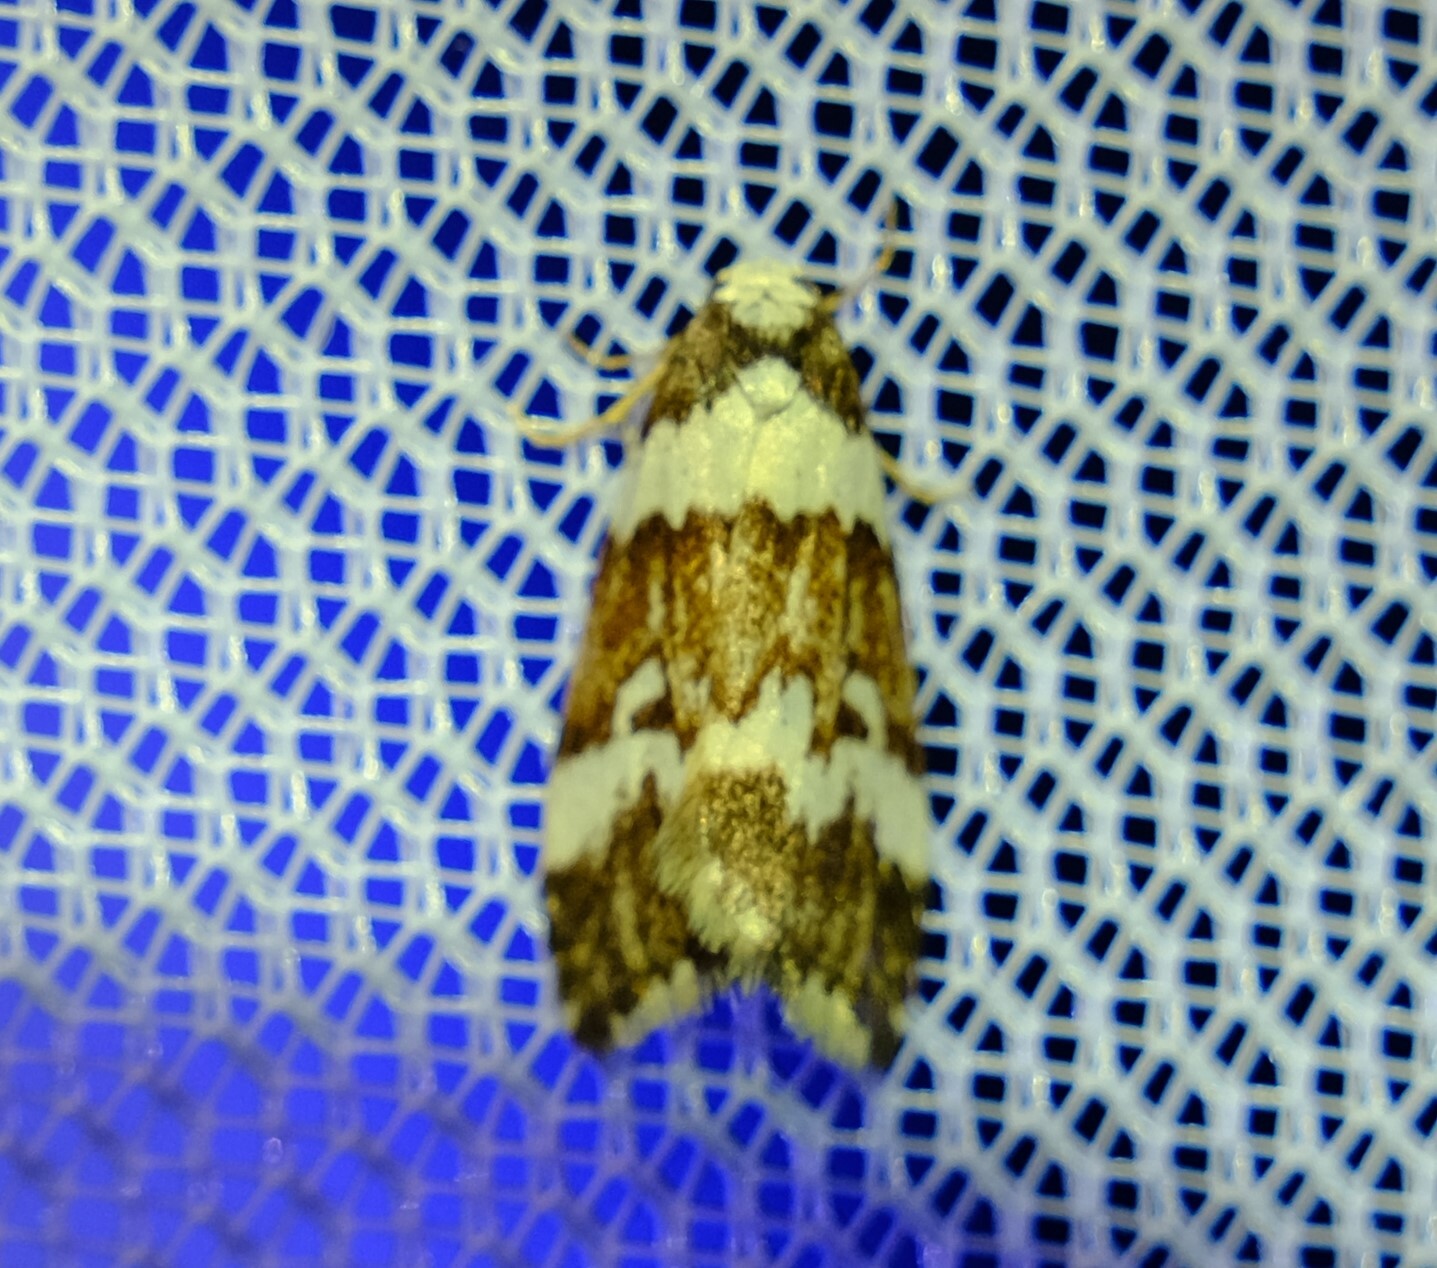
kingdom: Animalia
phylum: Arthropoda
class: Insecta
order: Lepidoptera
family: Erebidae
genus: Halone
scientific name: Halone sejuncta
